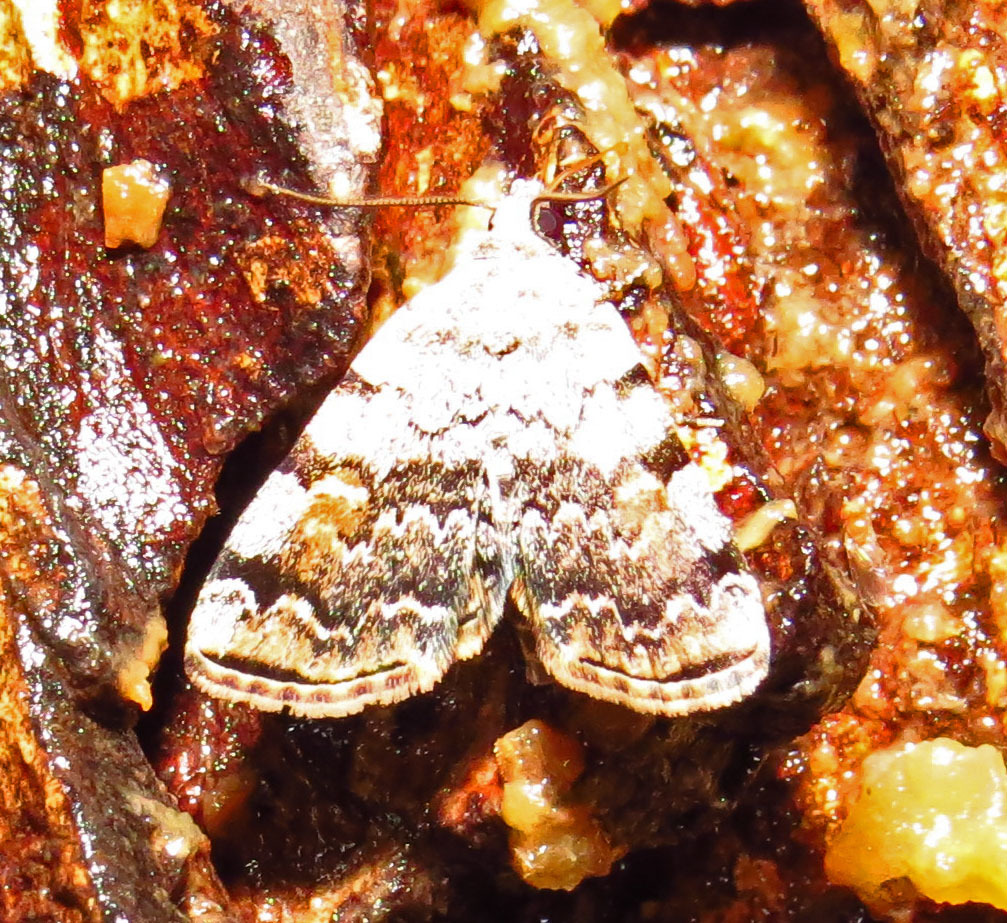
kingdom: Animalia
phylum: Arthropoda
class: Insecta
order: Lepidoptera
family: Erebidae
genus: Idia
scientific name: Idia americalis
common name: American idia moth
